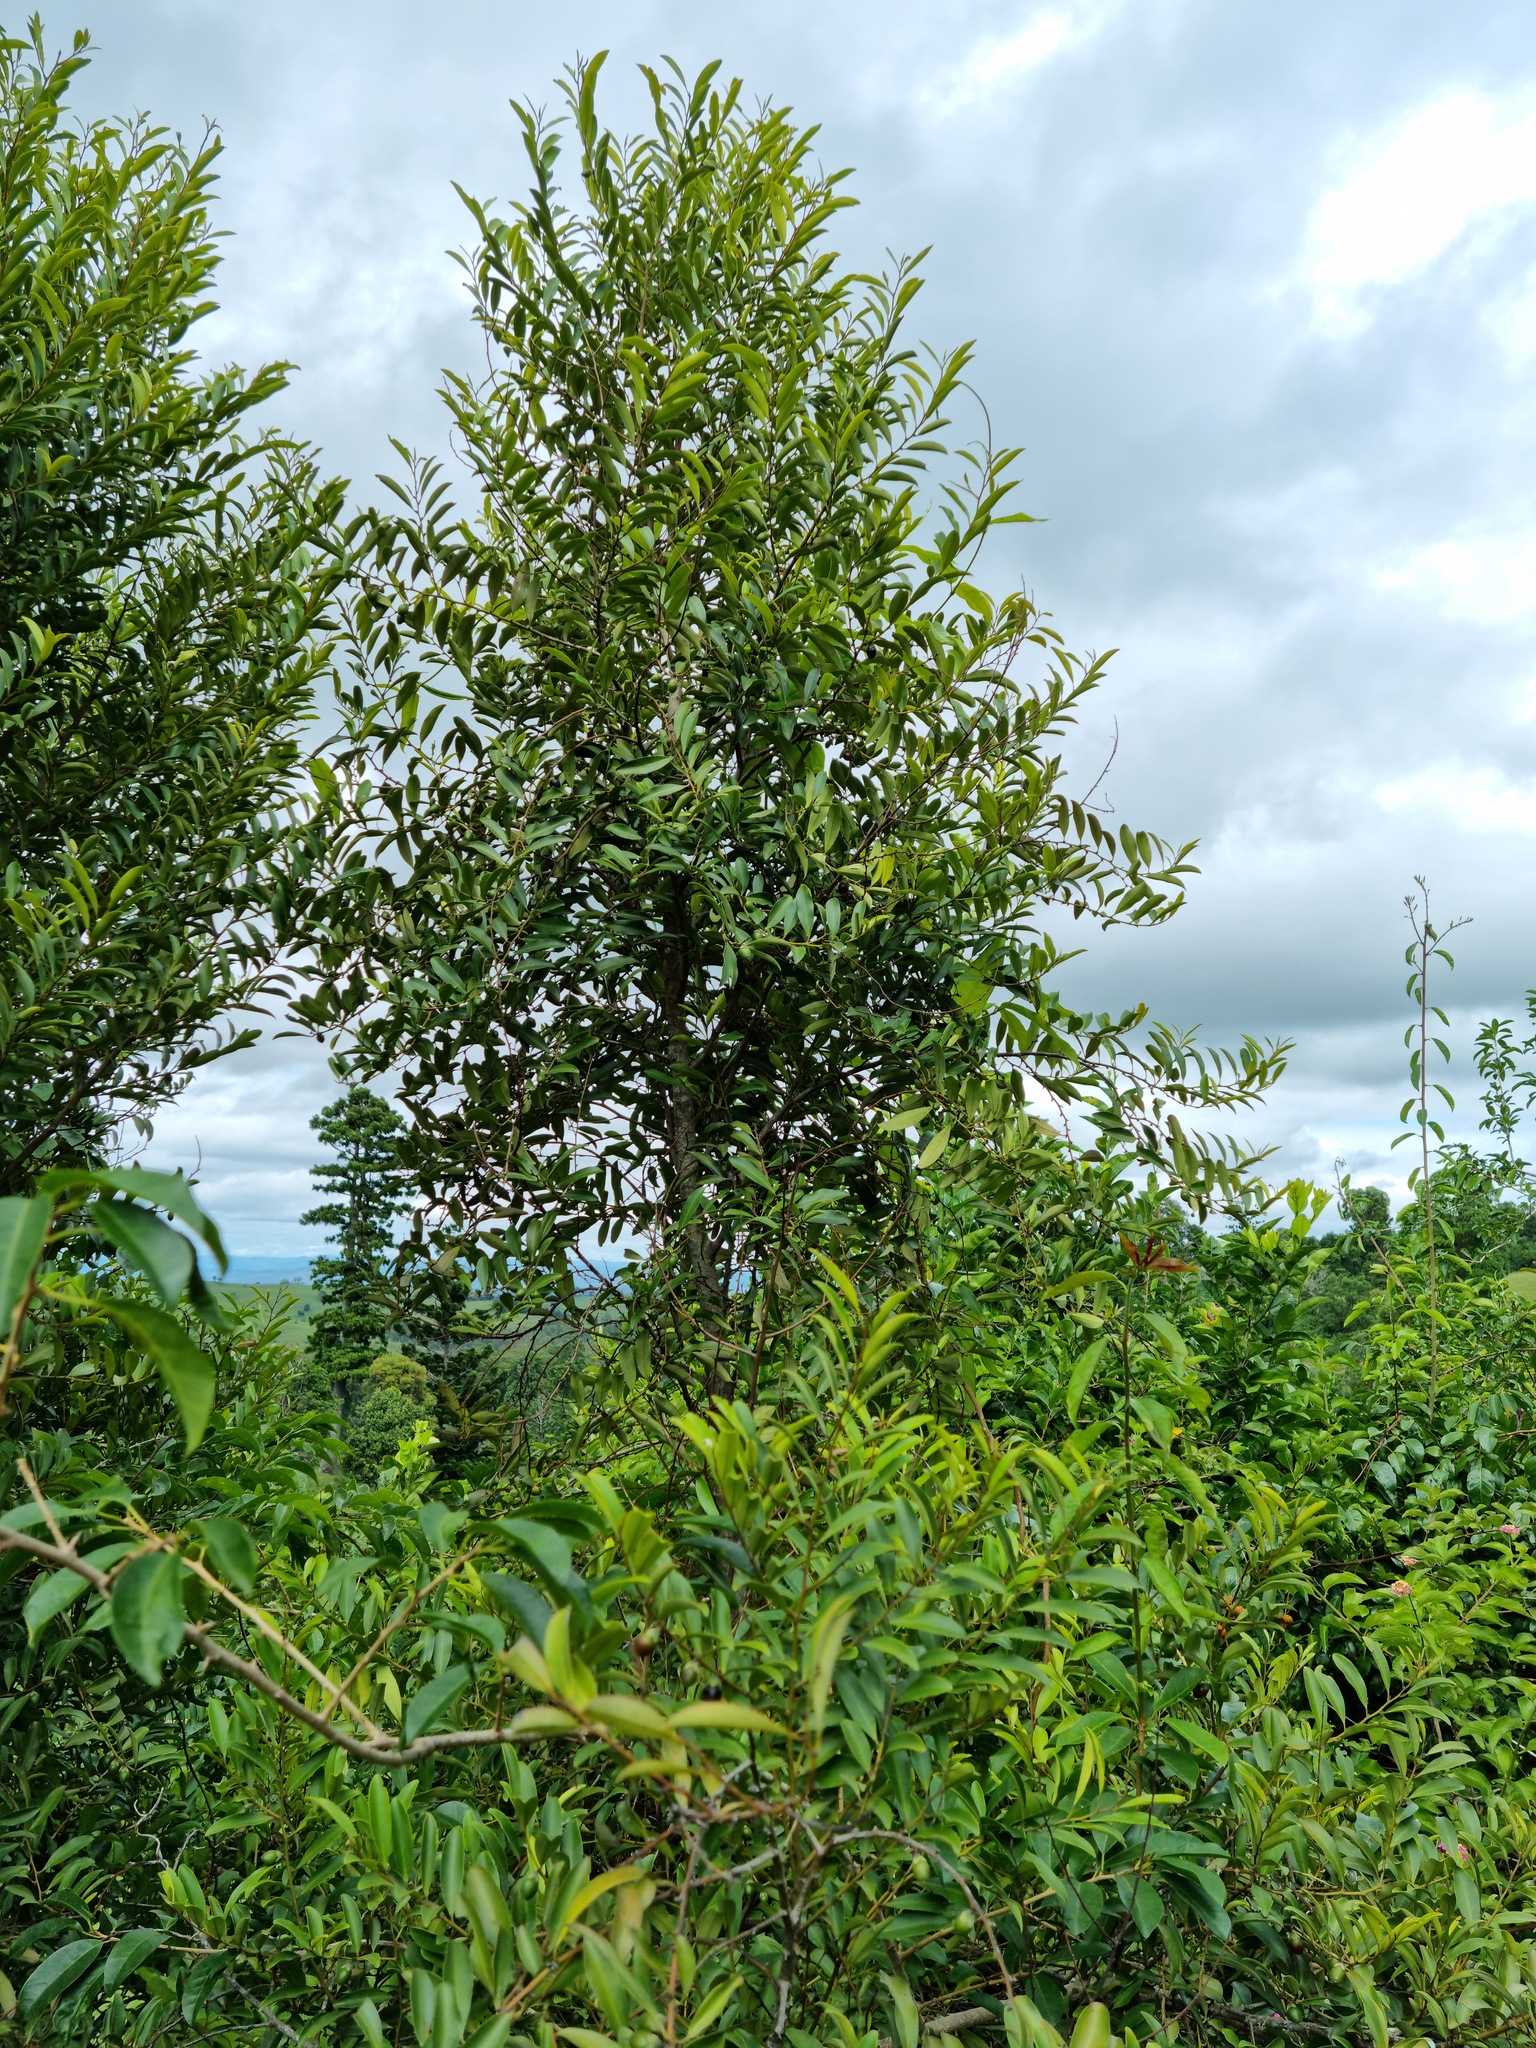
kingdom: Plantae
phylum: Tracheophyta
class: Magnoliopsida
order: Ericales
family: Ebenaceae
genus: Diospyros
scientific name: Diospyros australis
